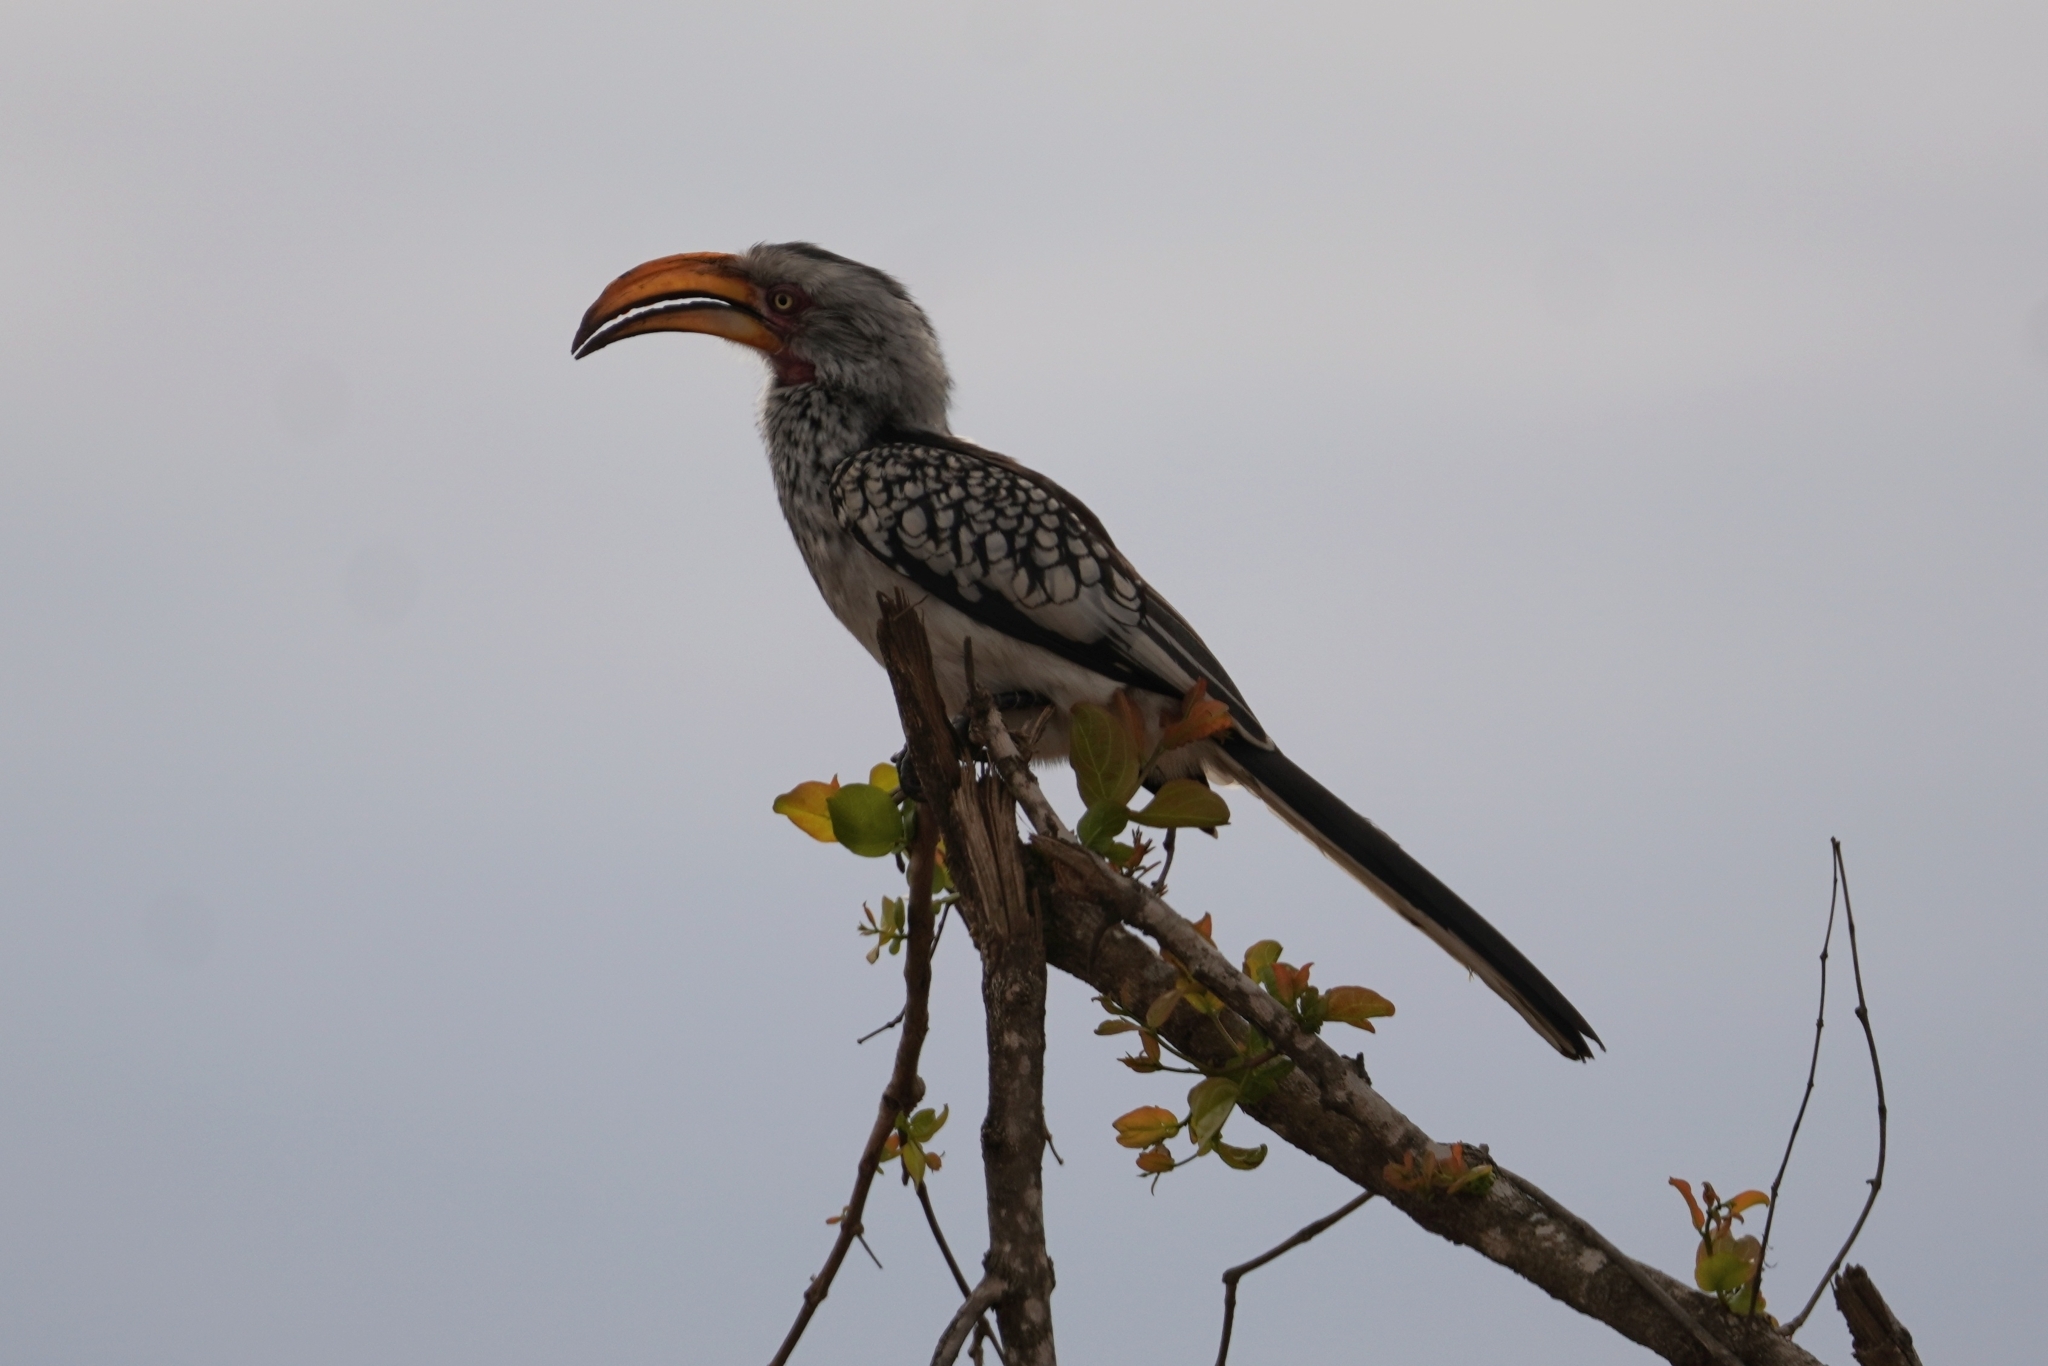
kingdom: Animalia
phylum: Chordata
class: Aves
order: Bucerotiformes
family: Bucerotidae
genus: Tockus
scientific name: Tockus leucomelas
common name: Southern yellow-billed hornbill
